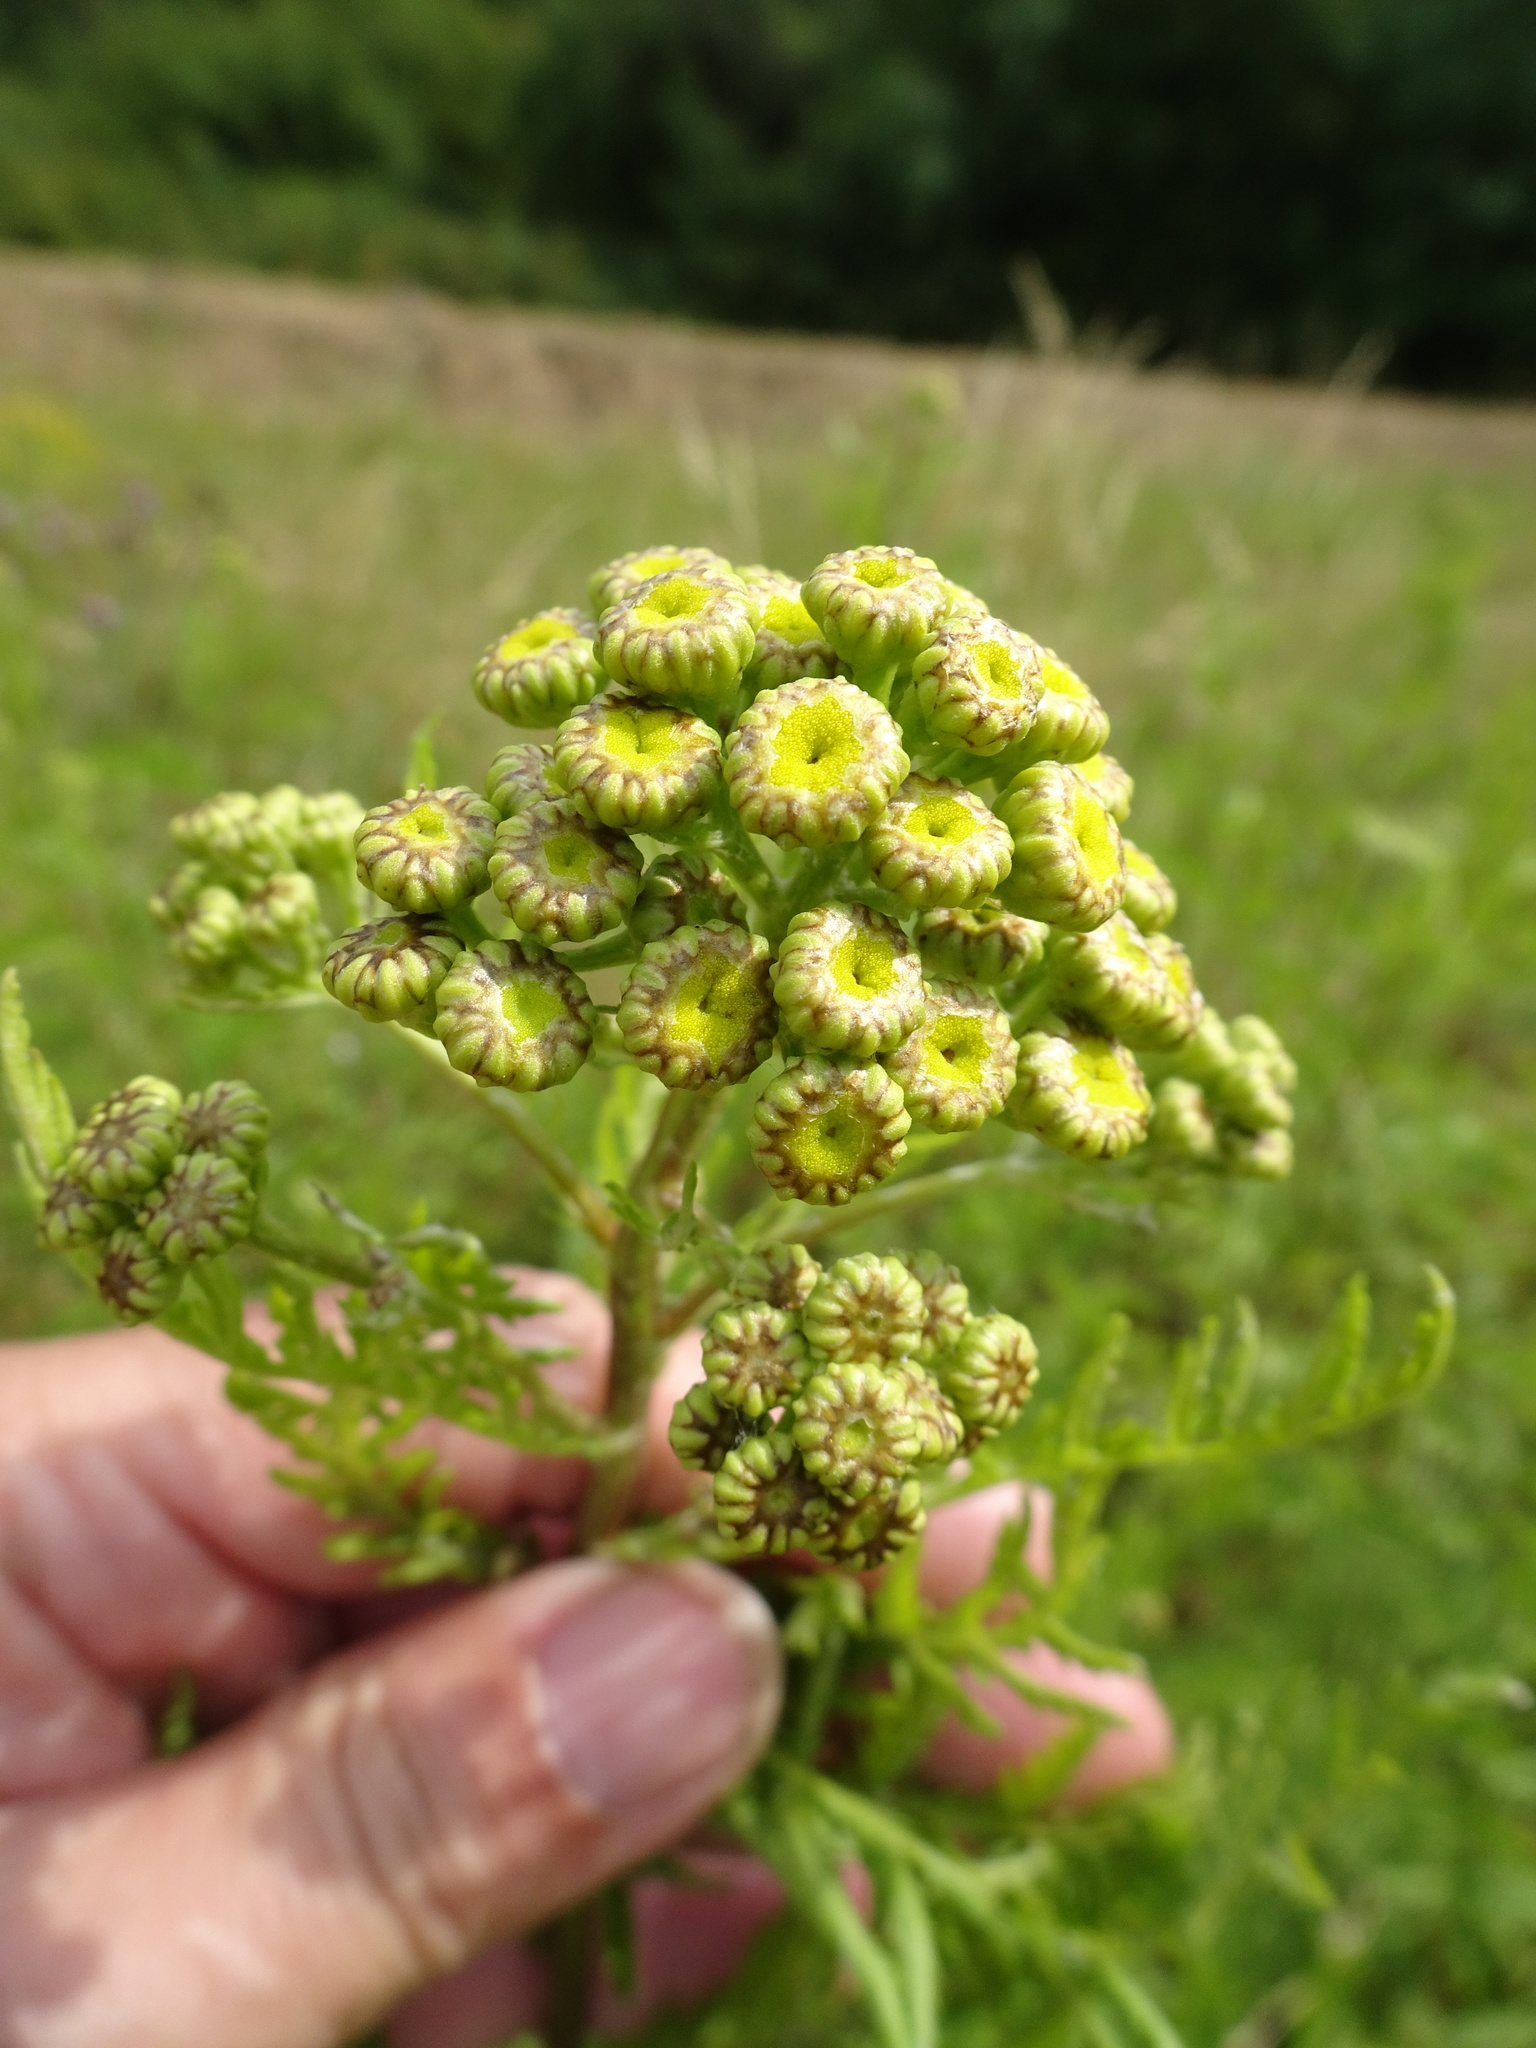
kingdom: Plantae
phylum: Tracheophyta
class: Magnoliopsida
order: Asterales
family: Asteraceae
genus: Tanacetum
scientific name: Tanacetum vulgare
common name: Common tansy
